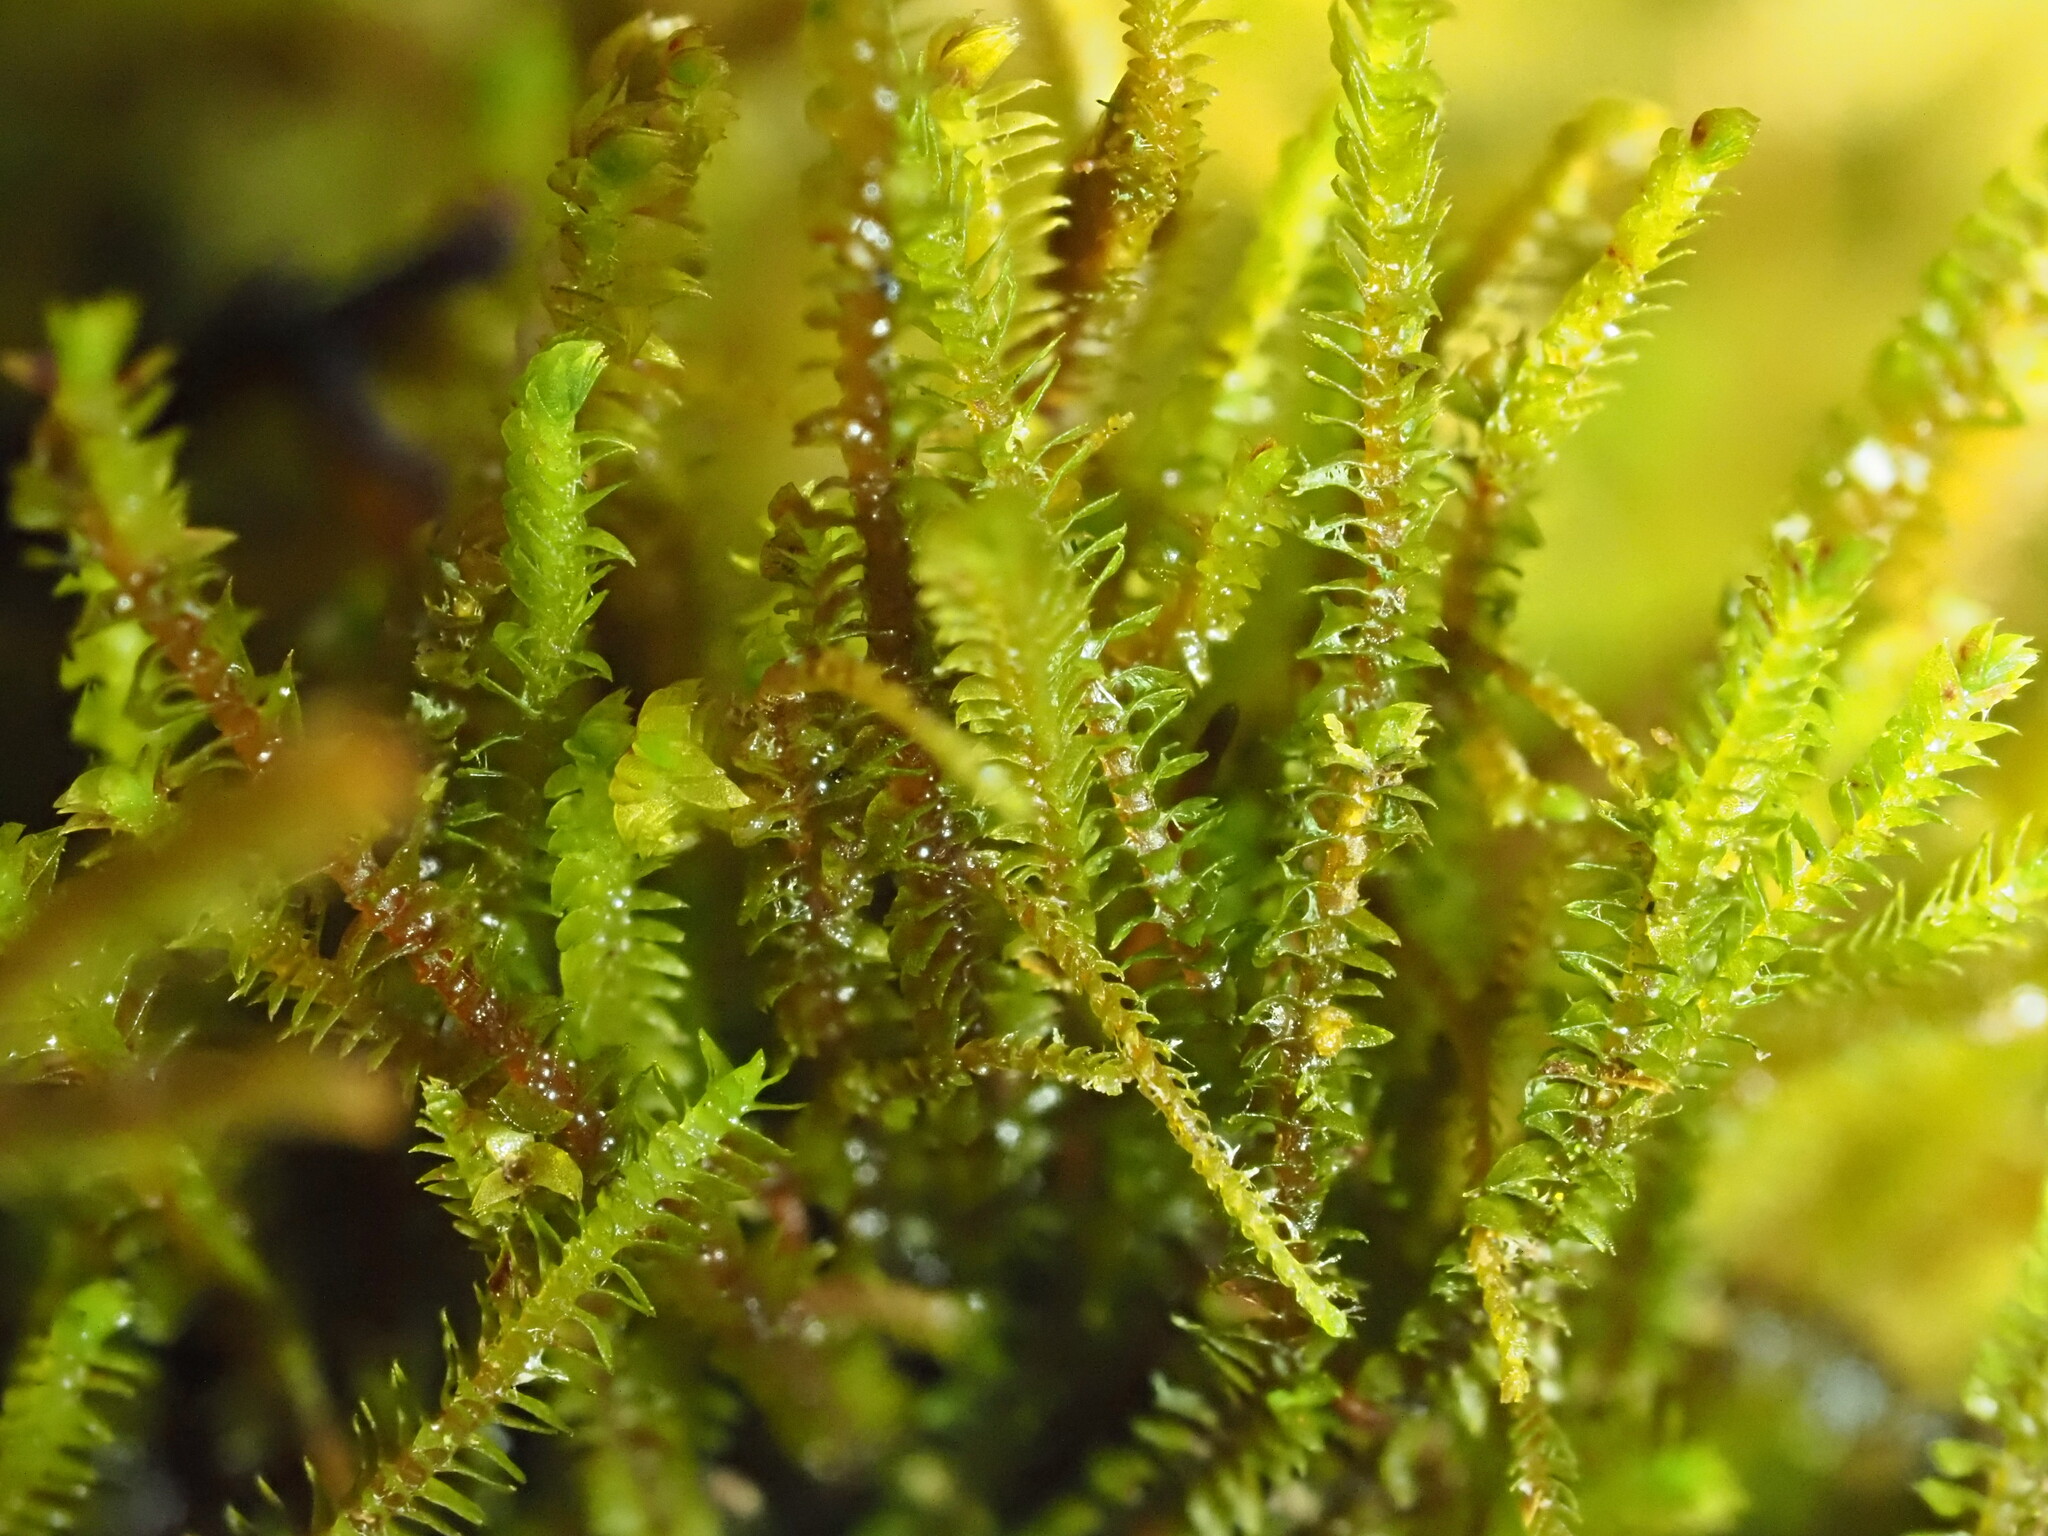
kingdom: Plantae
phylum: Marchantiophyta
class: Jungermanniopsida
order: Jungermanniales
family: Herbertaceae
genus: Herbertus
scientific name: Herbertus gracilis
